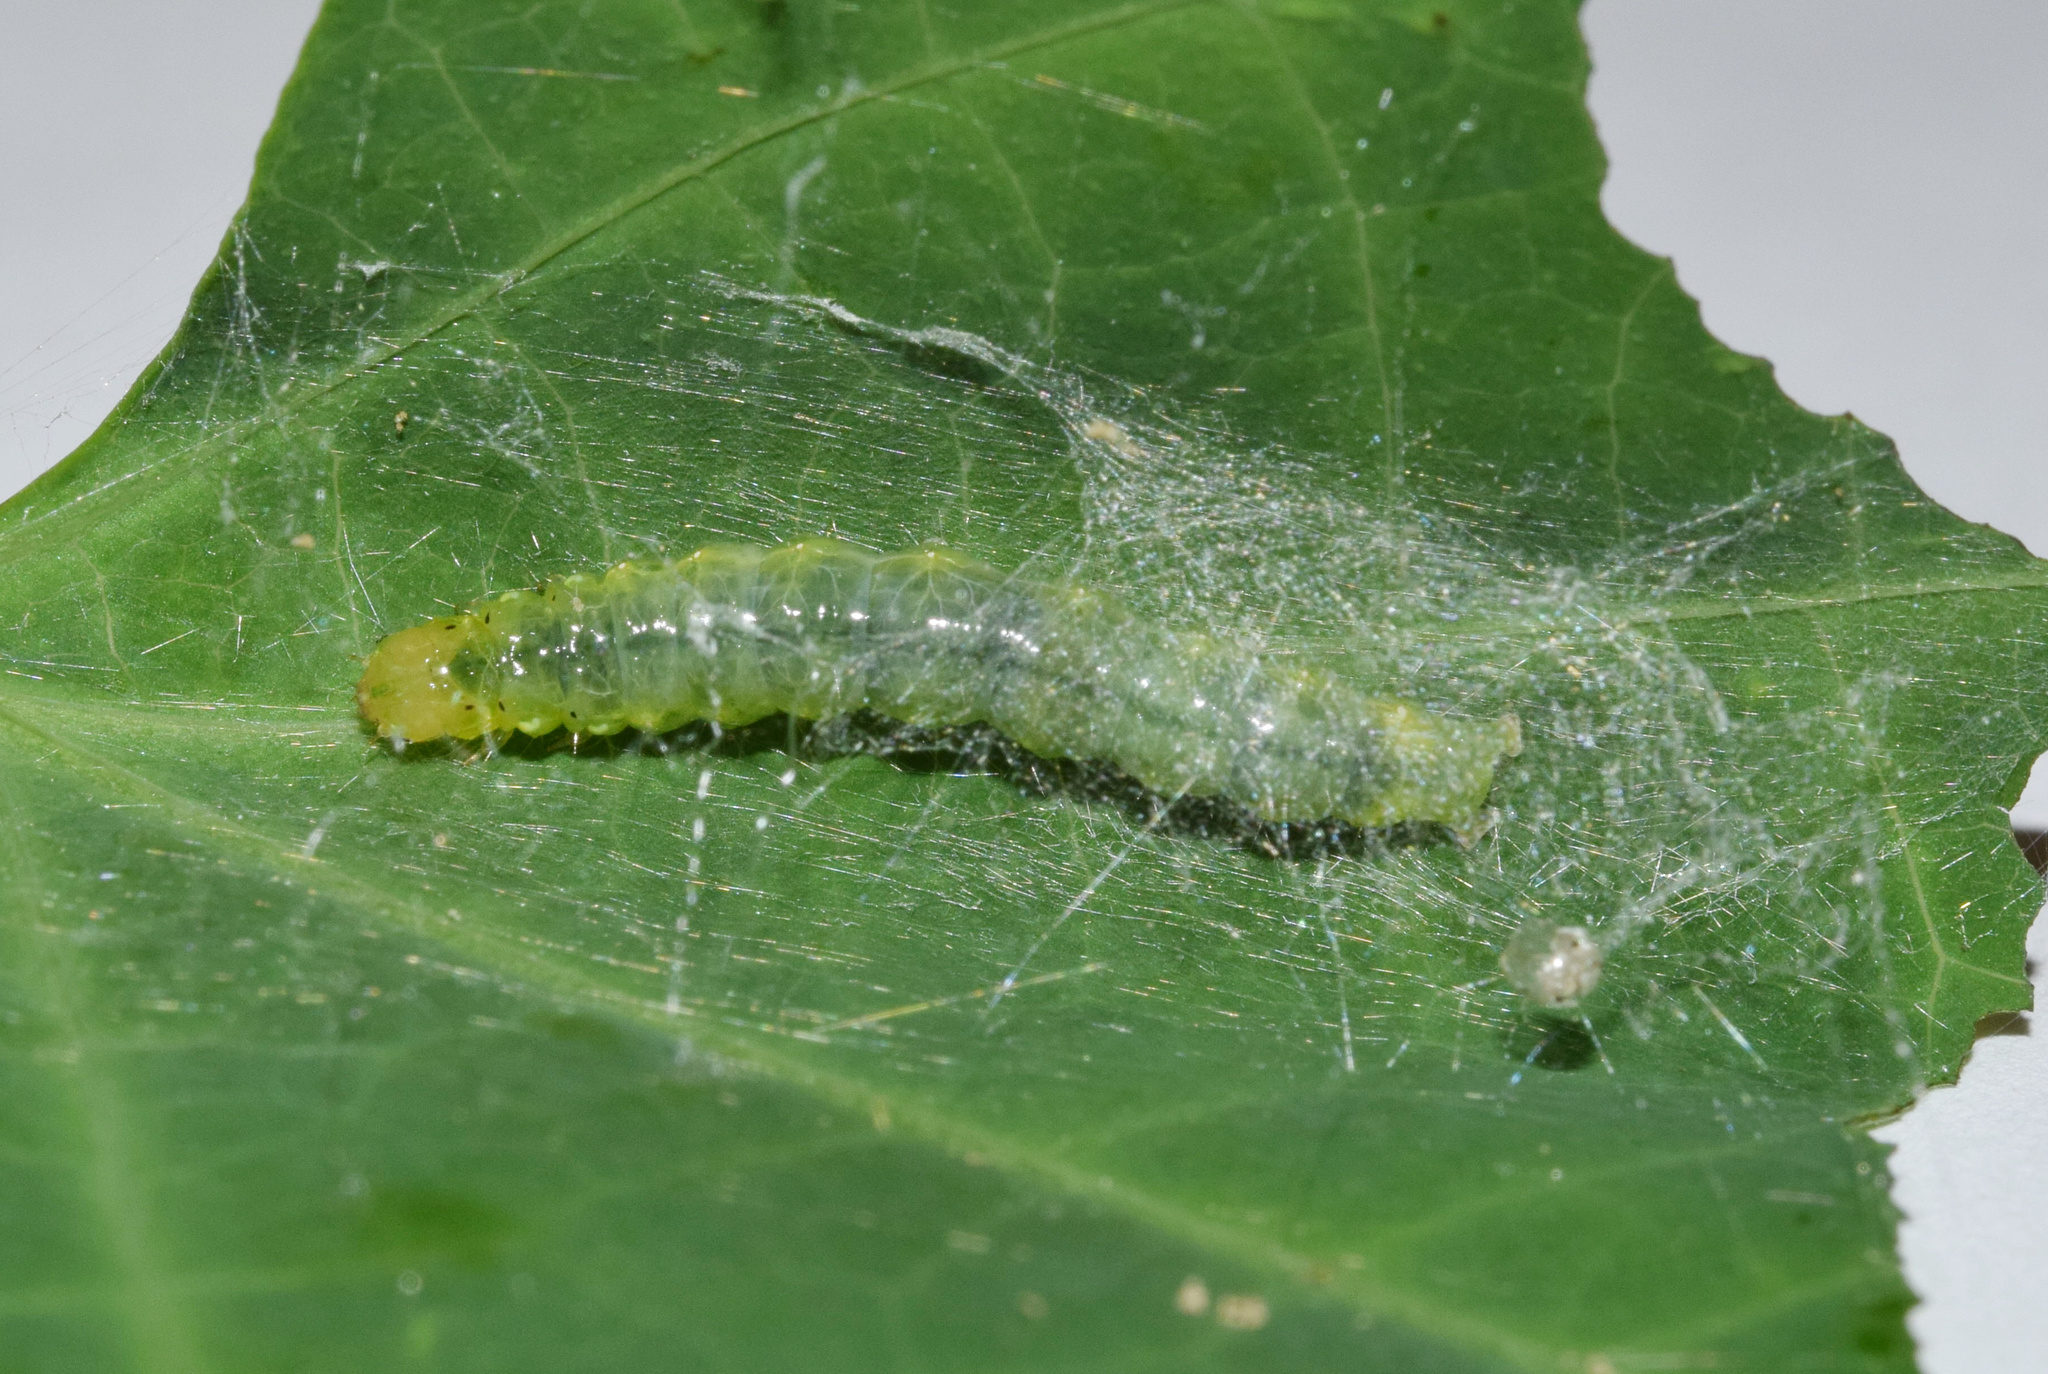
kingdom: Animalia
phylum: Arthropoda
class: Insecta
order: Lepidoptera
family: Crambidae
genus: Cadarena
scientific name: Cadarena pudoraria
